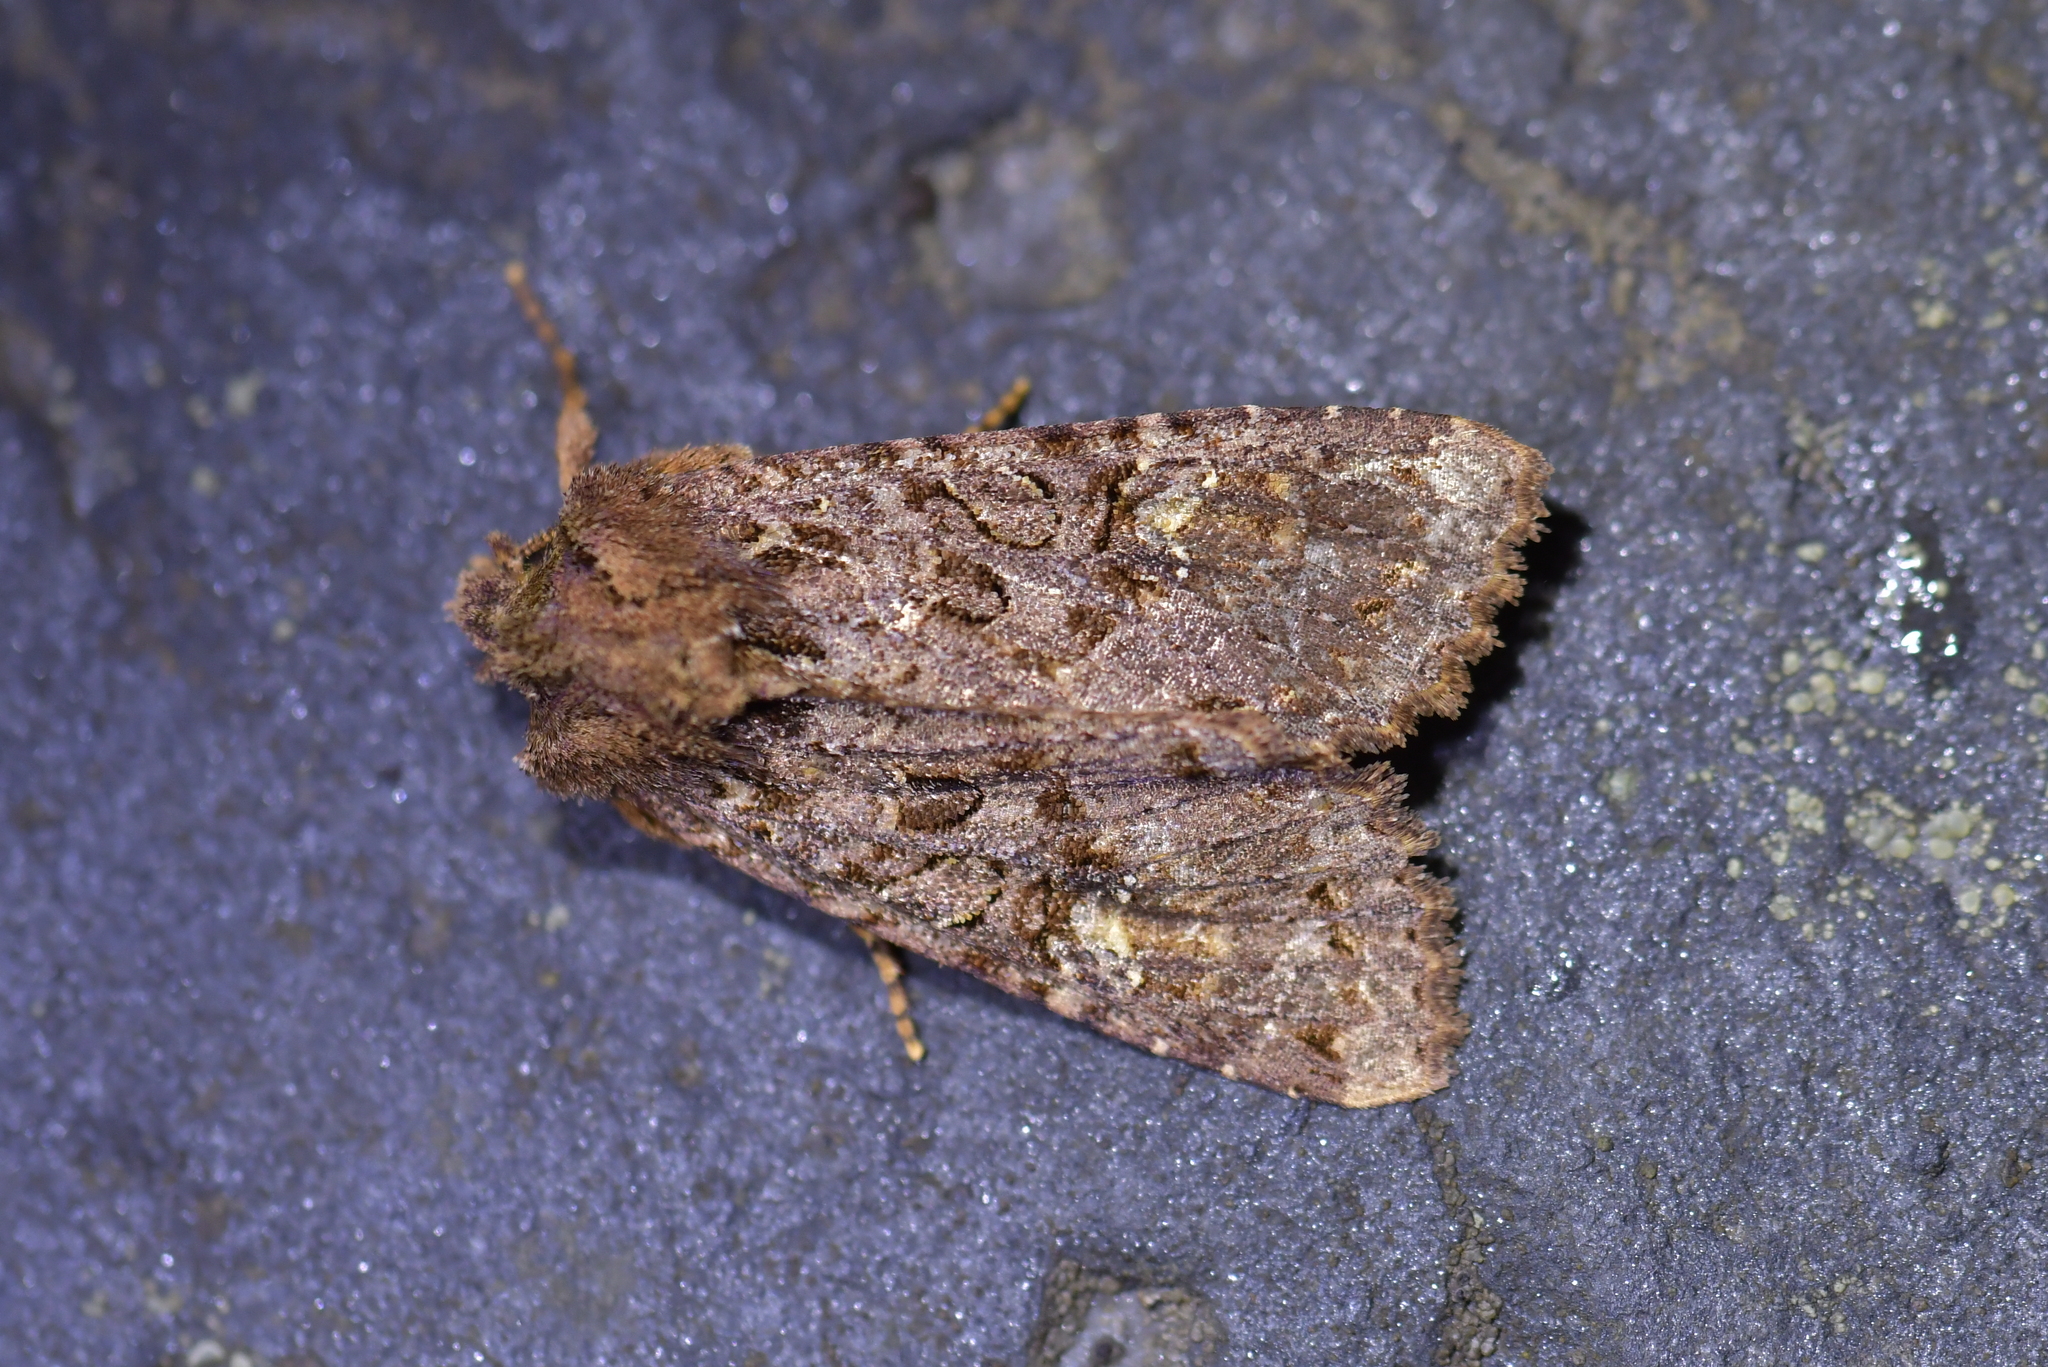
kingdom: Animalia
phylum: Arthropoda
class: Insecta
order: Lepidoptera
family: Noctuidae
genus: Meterana
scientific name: Meterana
